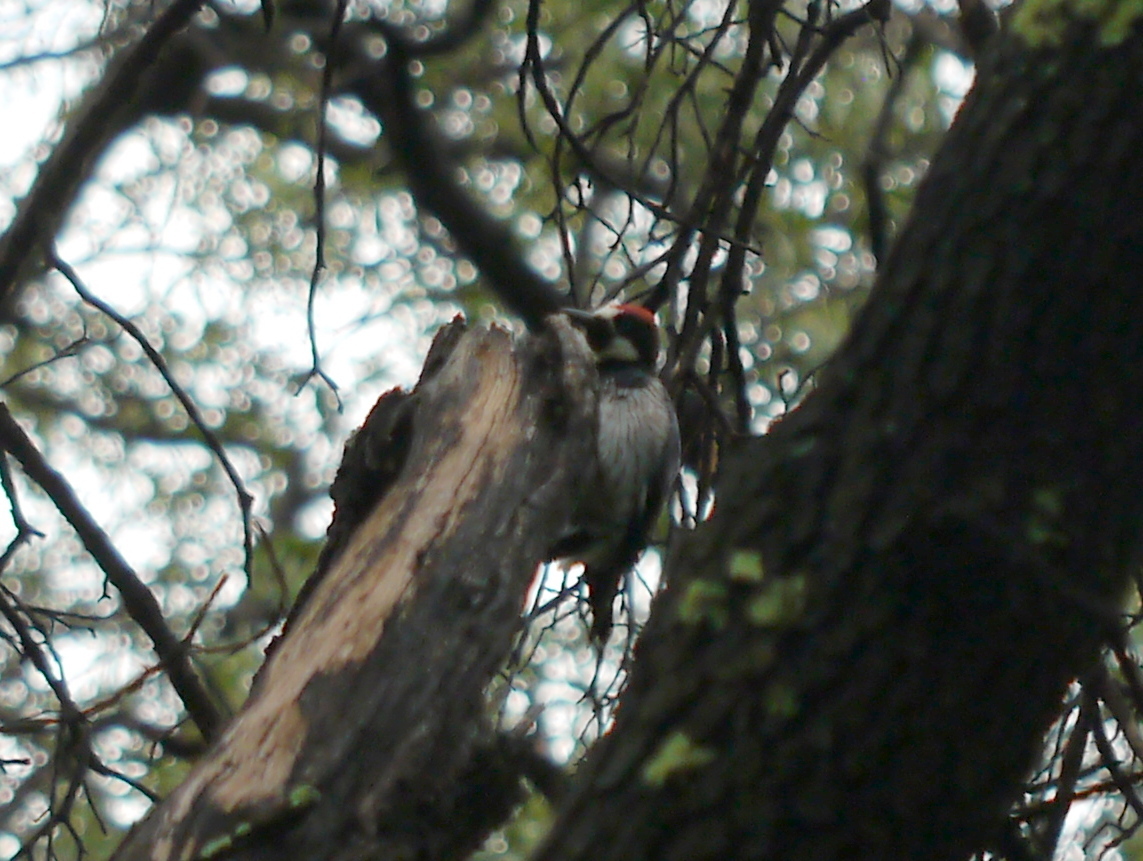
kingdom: Animalia
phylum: Chordata
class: Aves
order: Piciformes
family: Picidae
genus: Melanerpes
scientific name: Melanerpes formicivorus
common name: Acorn woodpecker
